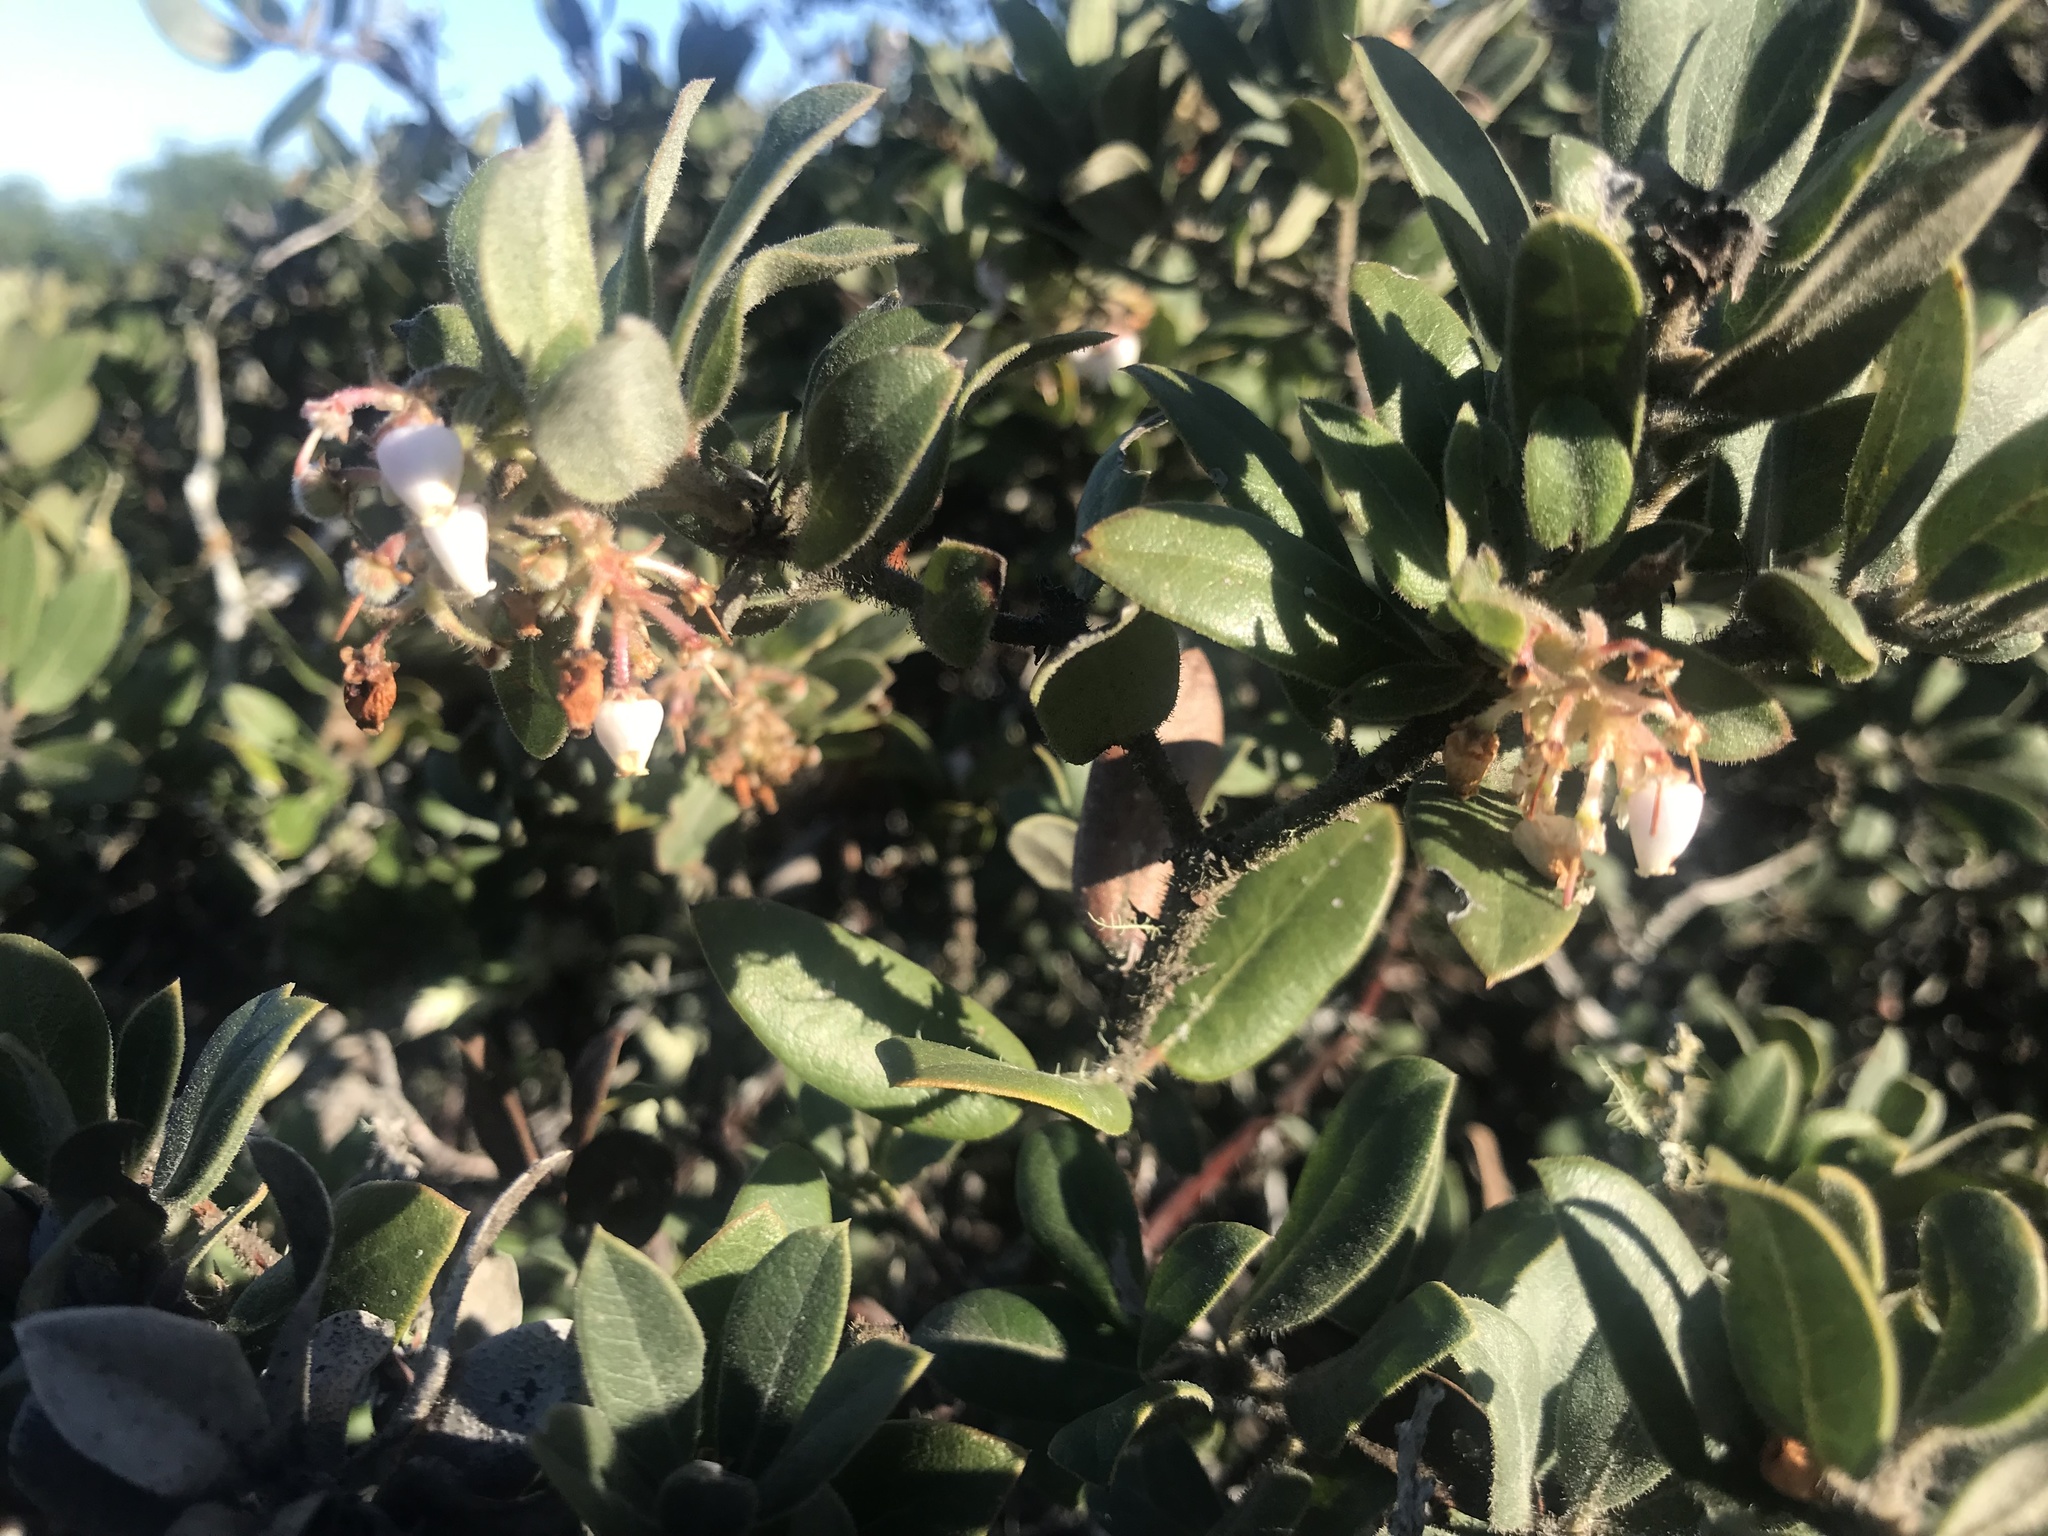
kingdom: Plantae
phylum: Tracheophyta
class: Magnoliopsida
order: Ericales
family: Ericaceae
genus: Arctostaphylos
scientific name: Arctostaphylos tomentosa
